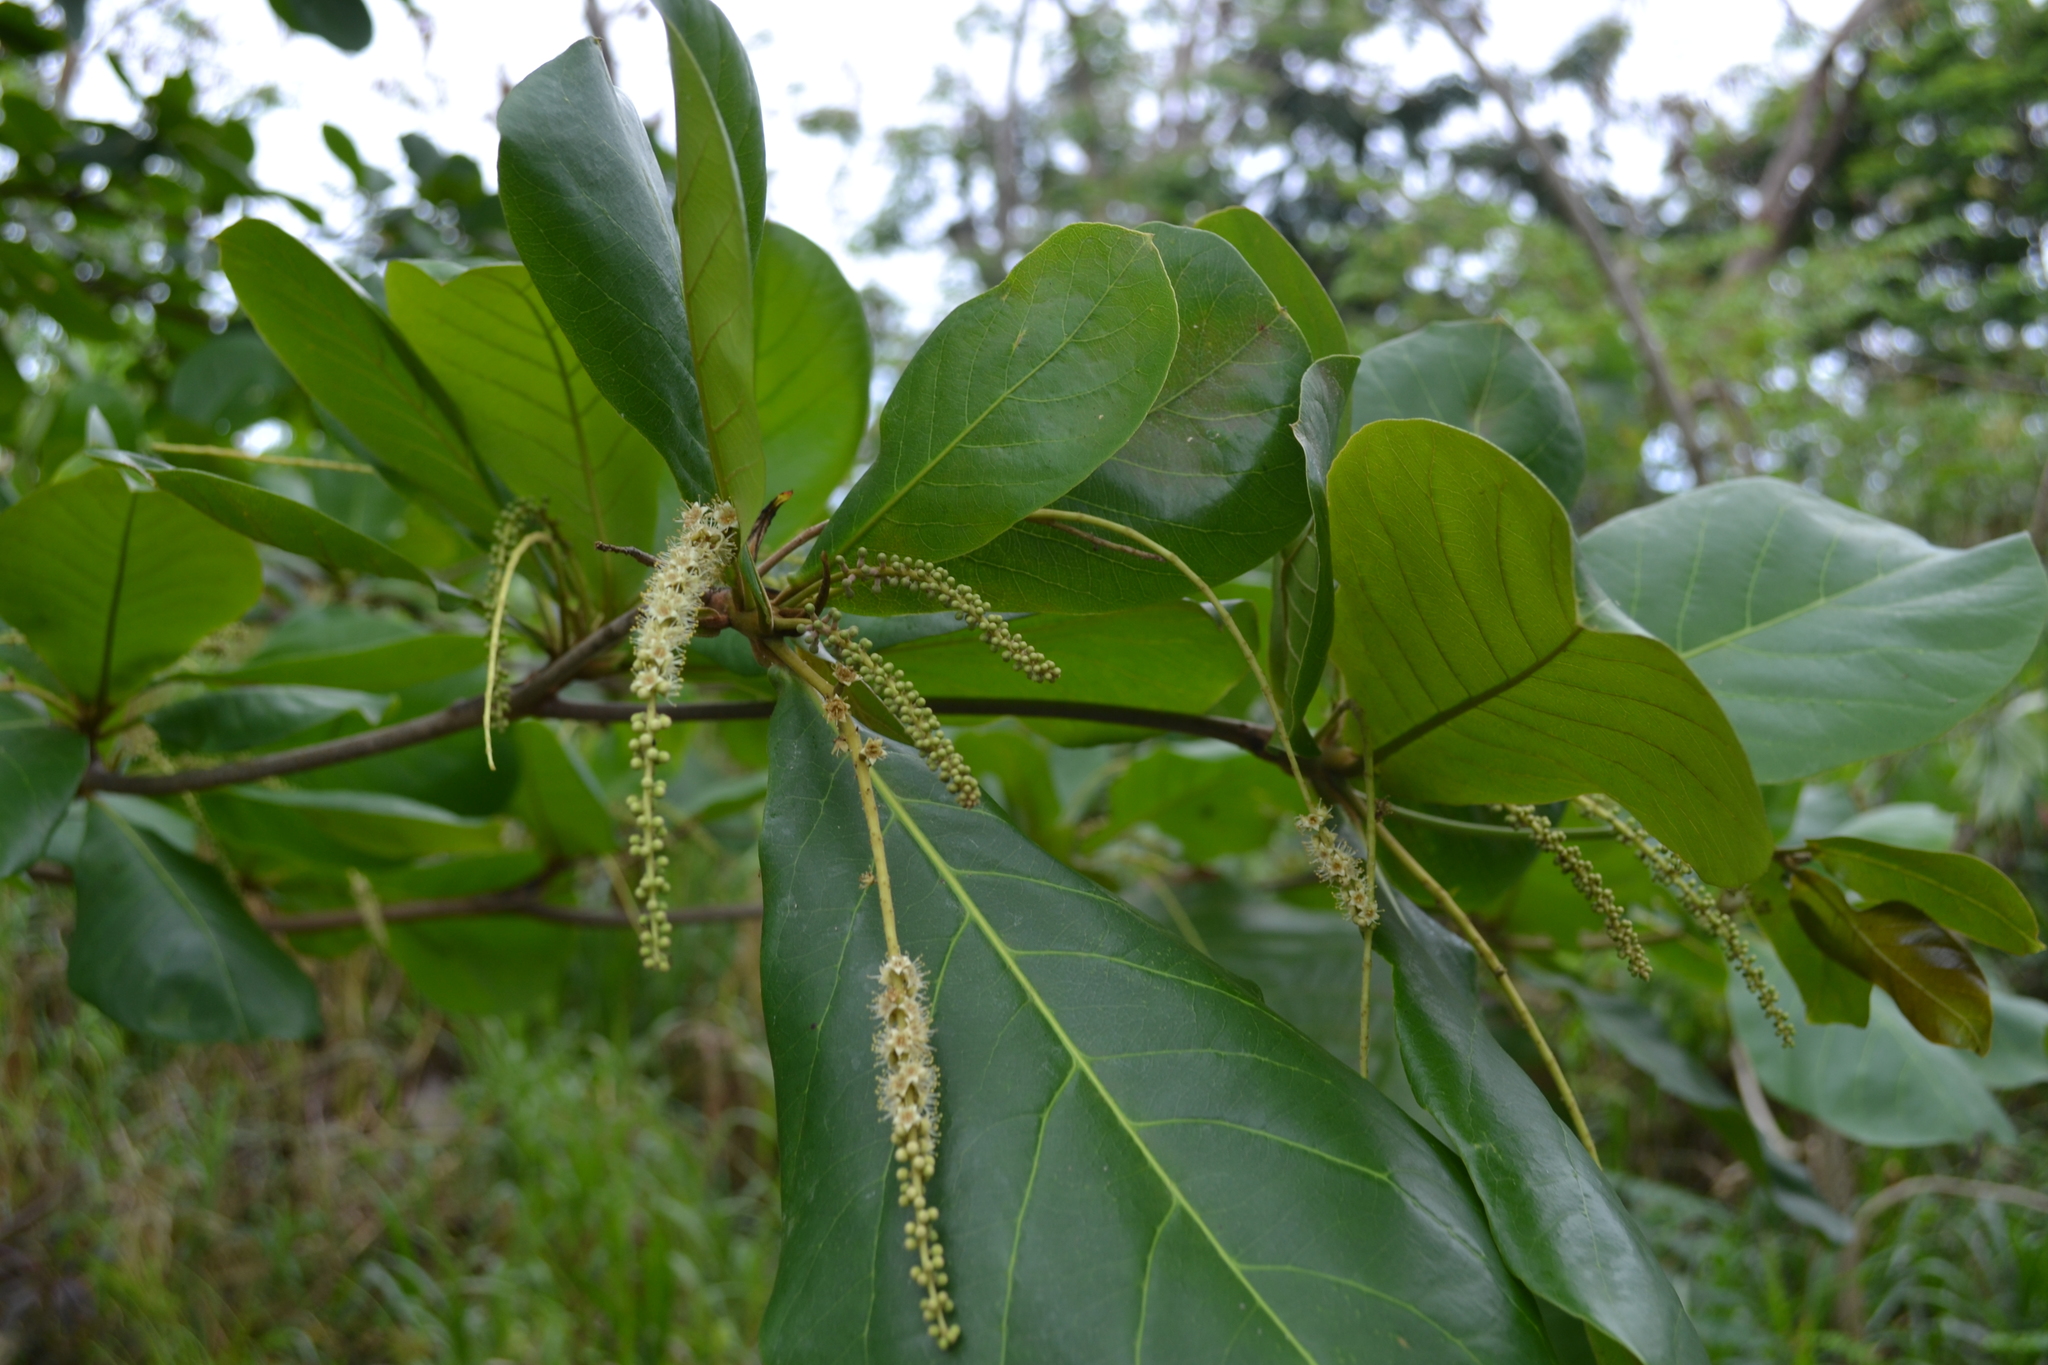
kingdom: Plantae
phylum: Tracheophyta
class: Magnoliopsida
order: Myrtales
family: Combretaceae
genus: Terminalia
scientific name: Terminalia catappa
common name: Tropical almond
